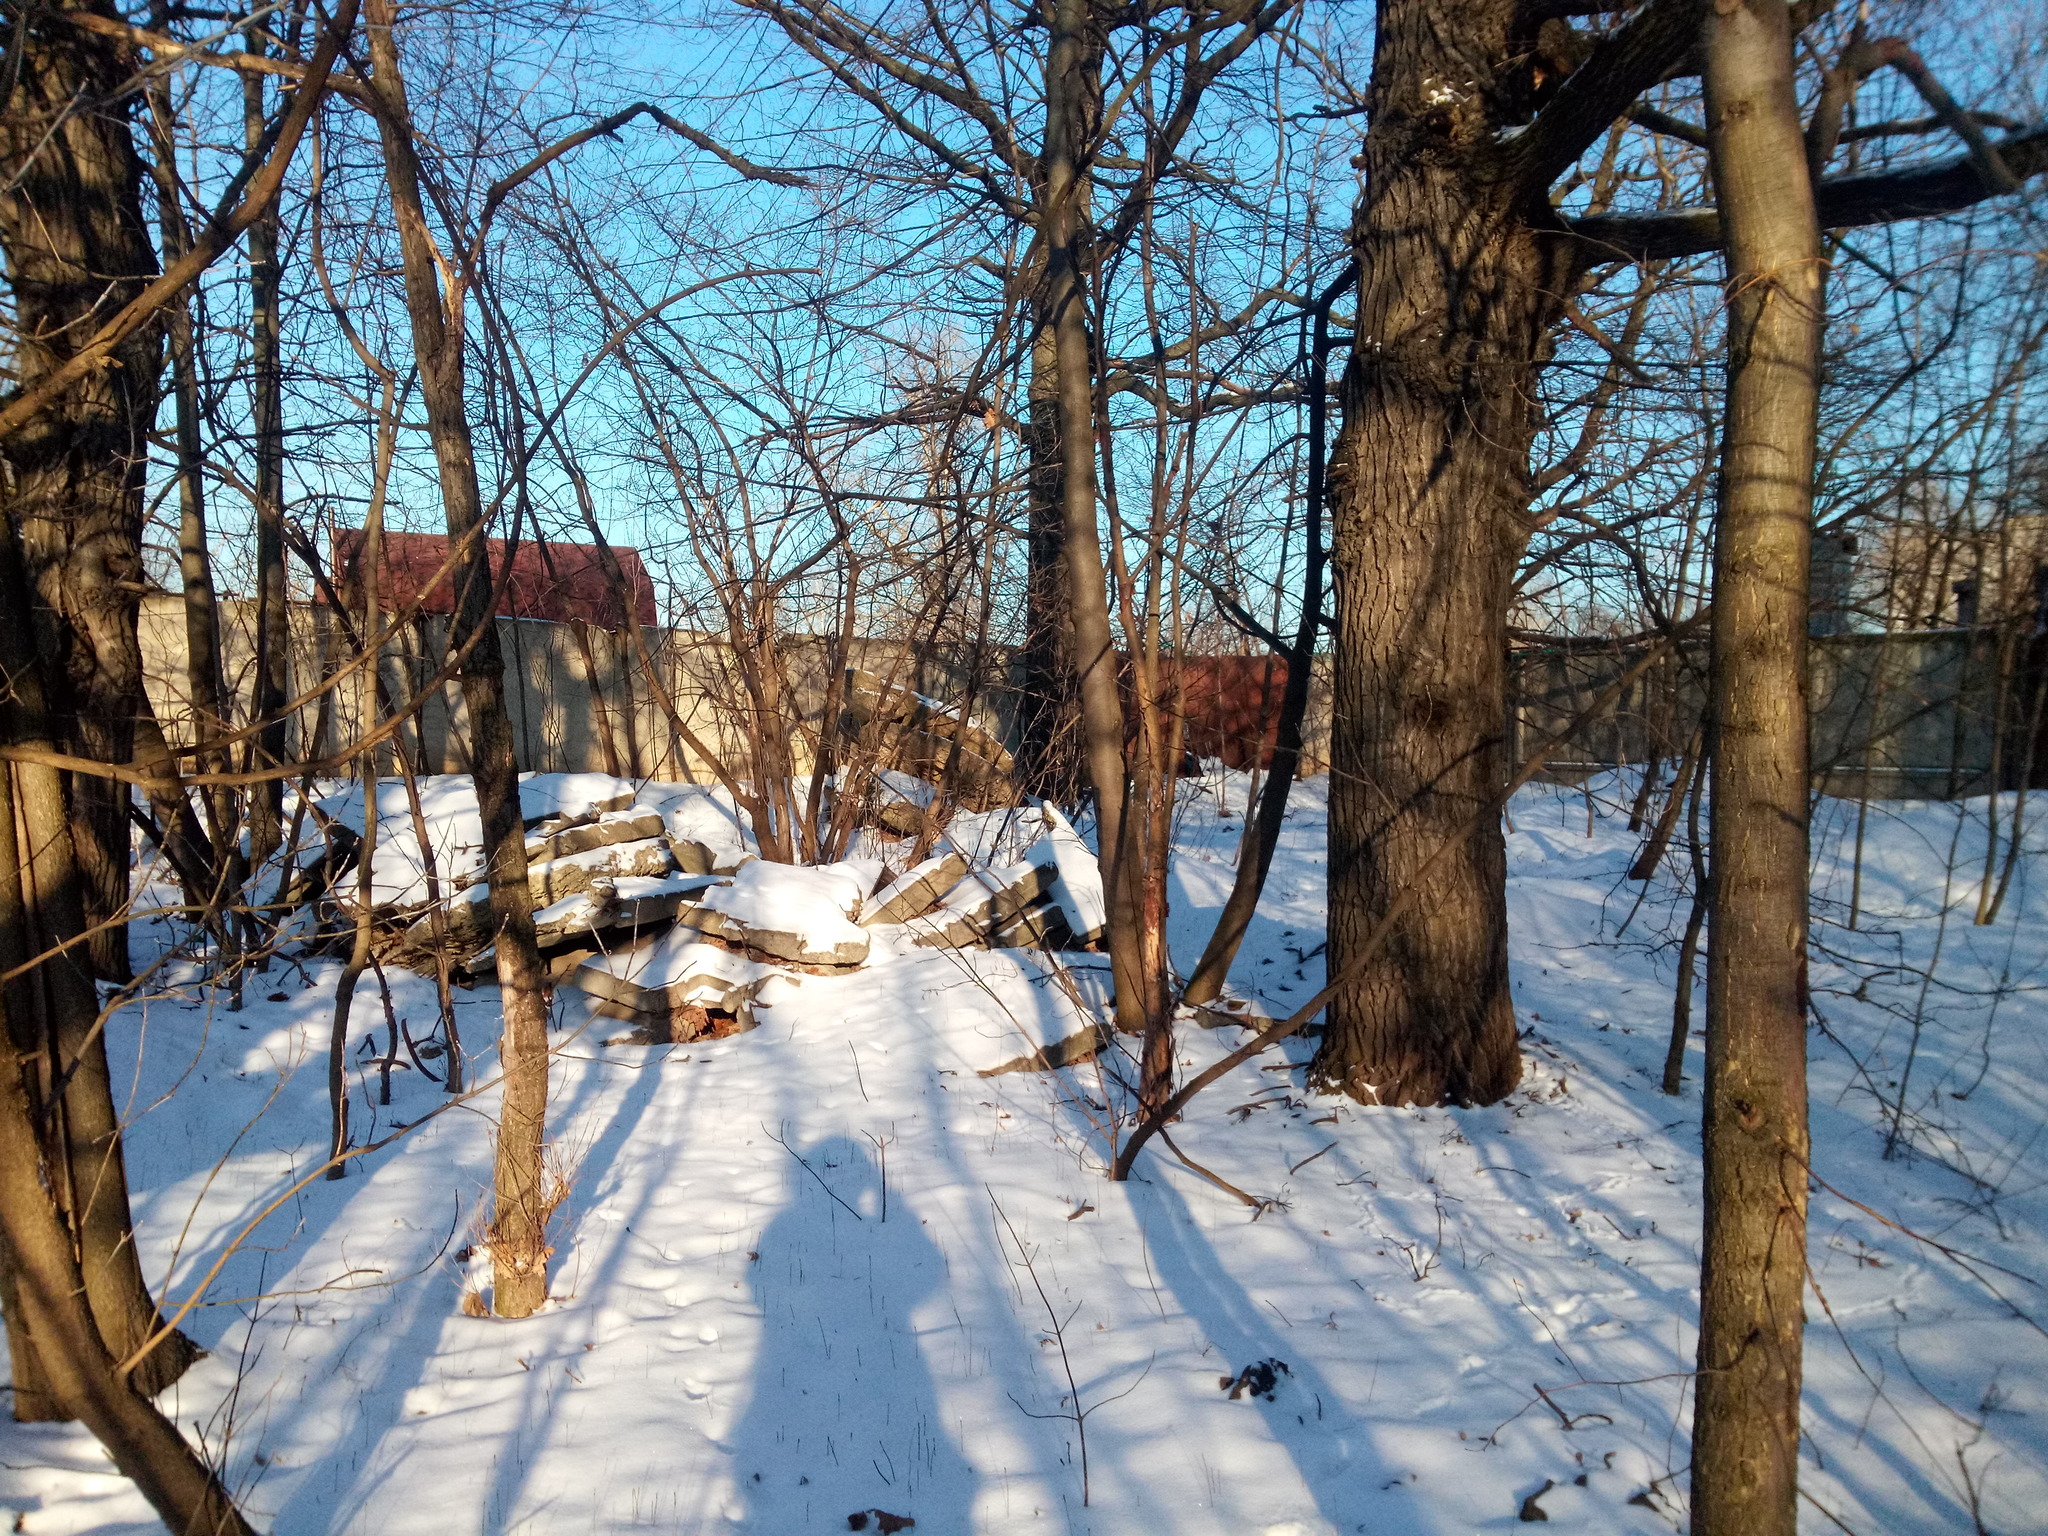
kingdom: Plantae
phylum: Tracheophyta
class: Magnoliopsida
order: Fagales
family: Fagaceae
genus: Quercus
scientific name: Quercus robur
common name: Pedunculate oak
